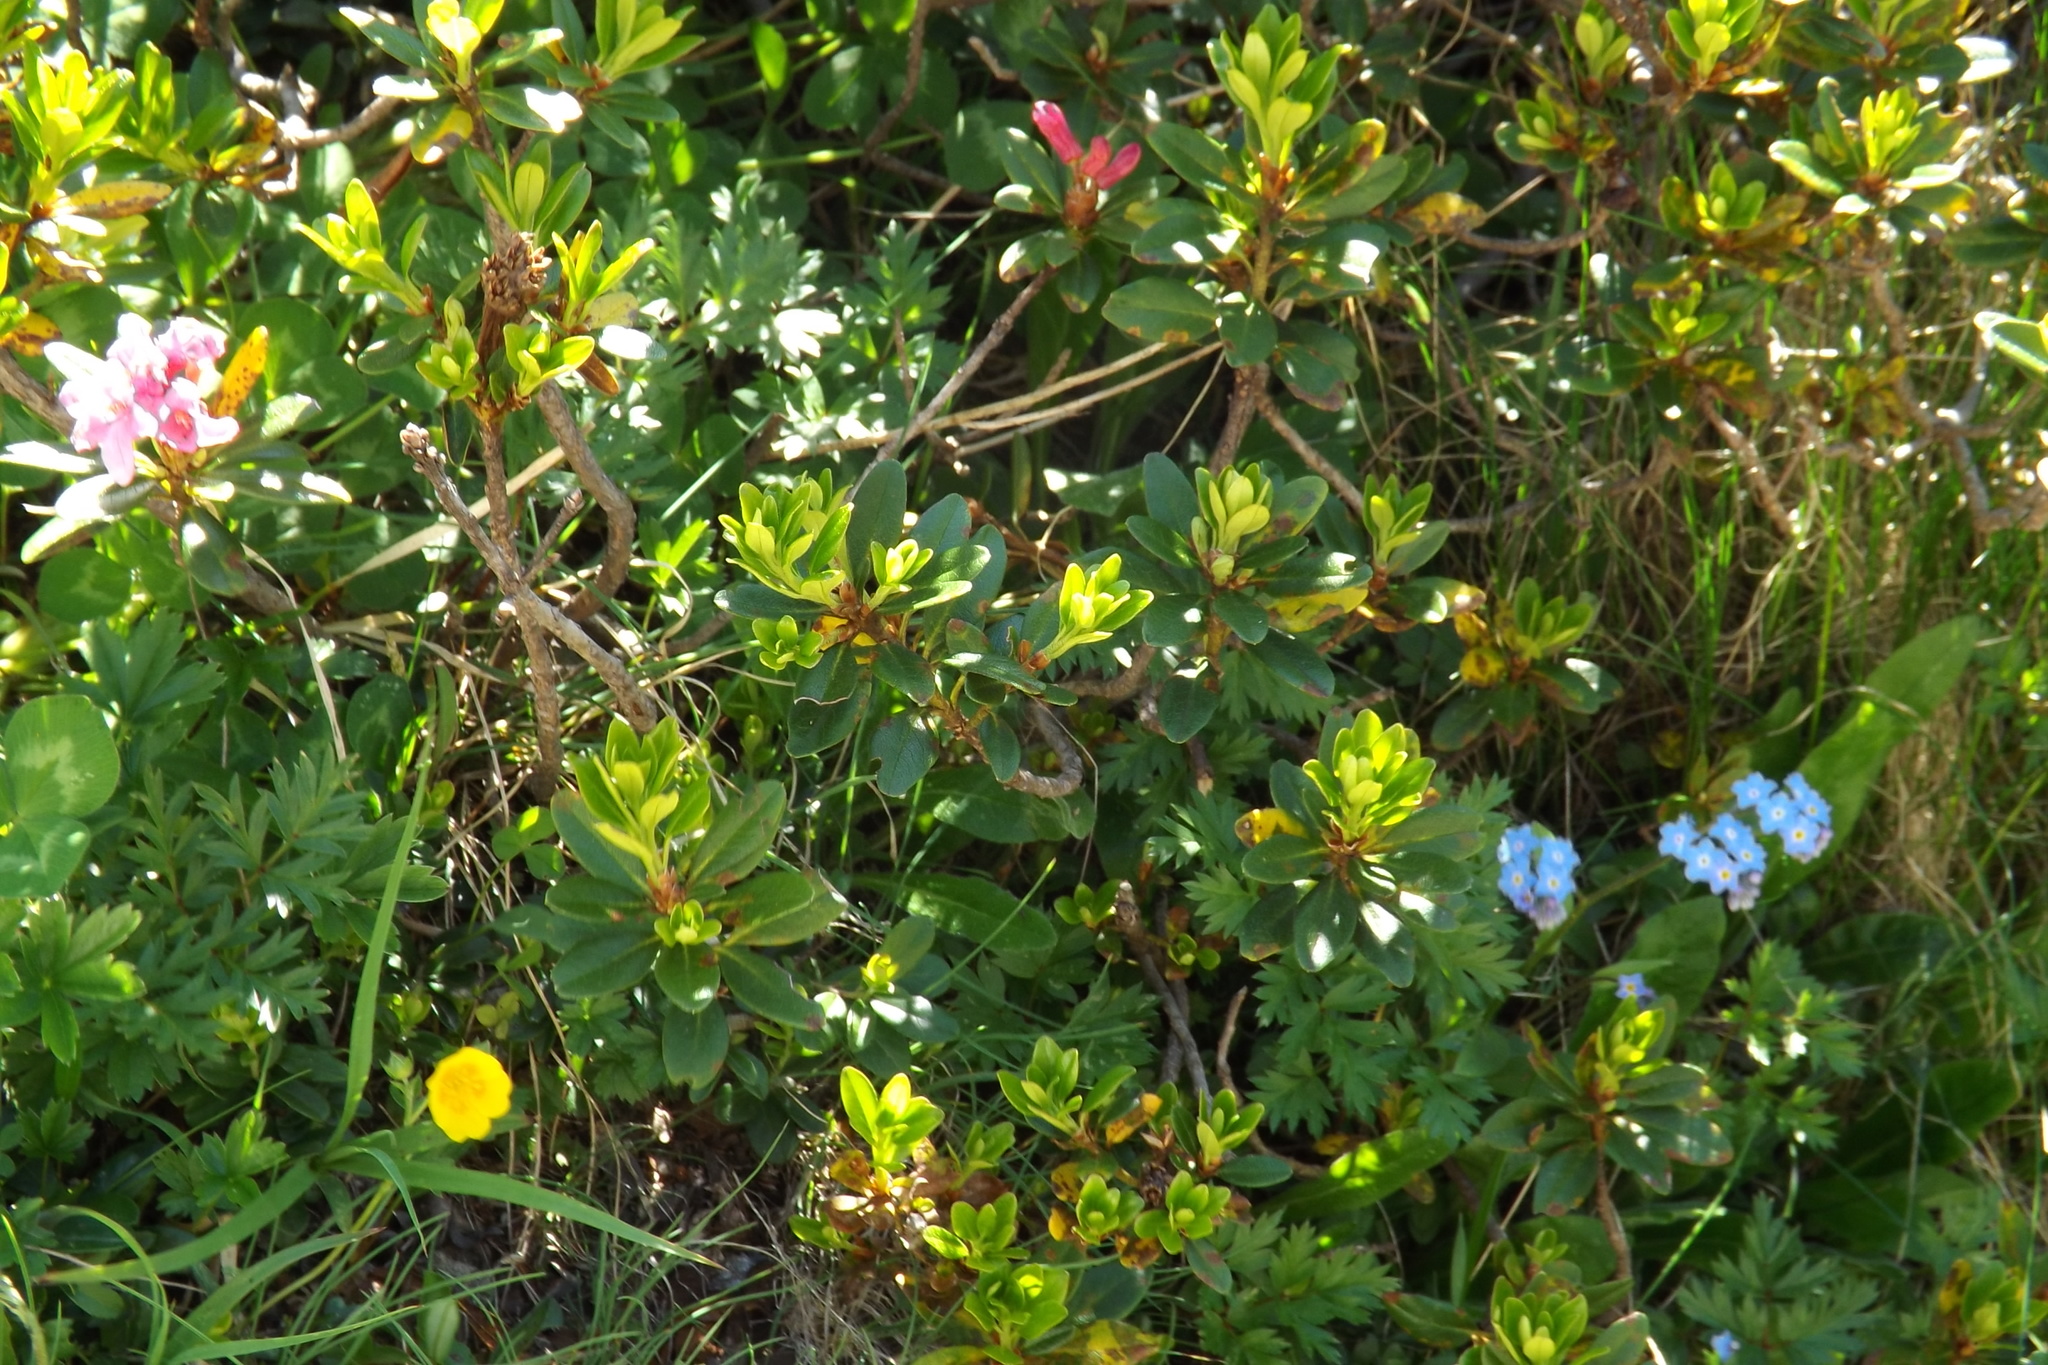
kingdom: Plantae
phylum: Tracheophyta
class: Magnoliopsida
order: Ericales
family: Ericaceae
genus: Rhododendron
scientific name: Rhododendron ferrugineum
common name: Alpenrose
